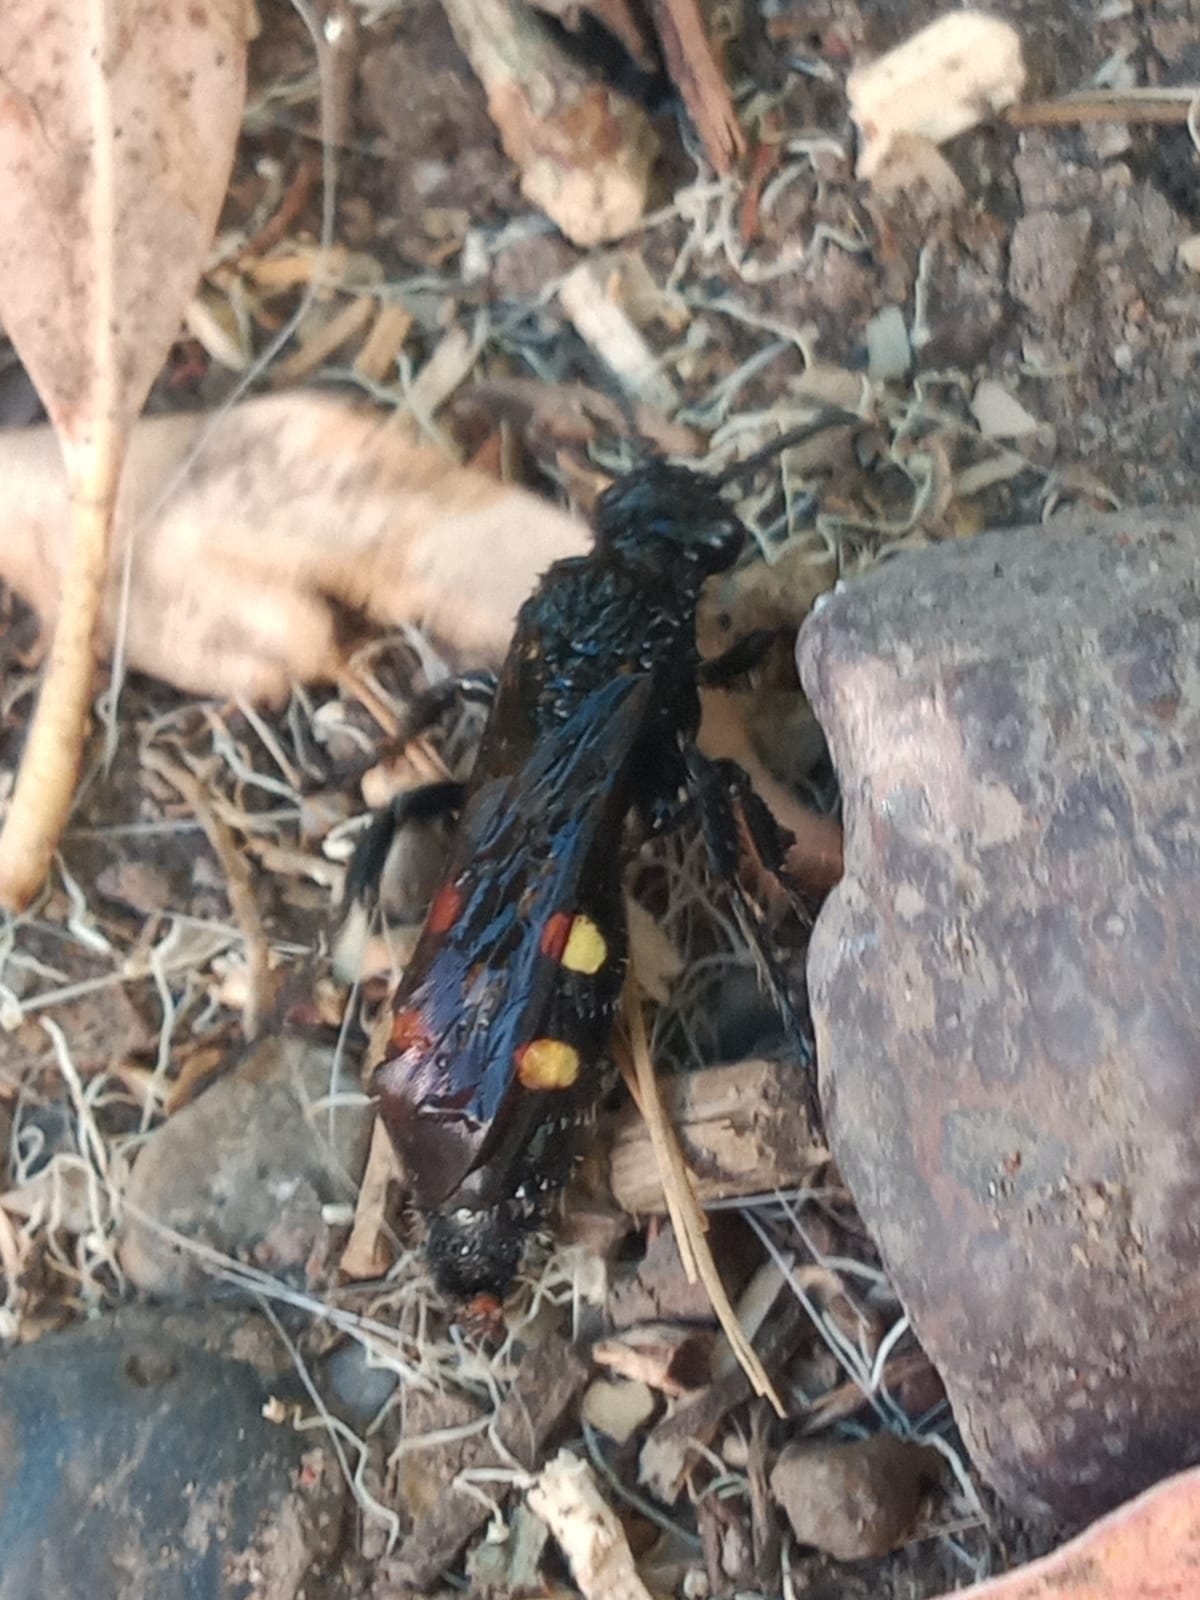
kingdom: Animalia
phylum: Arthropoda
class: Insecta
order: Hymenoptera
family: Scoliidae
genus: Pygodasis
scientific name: Pygodasis
